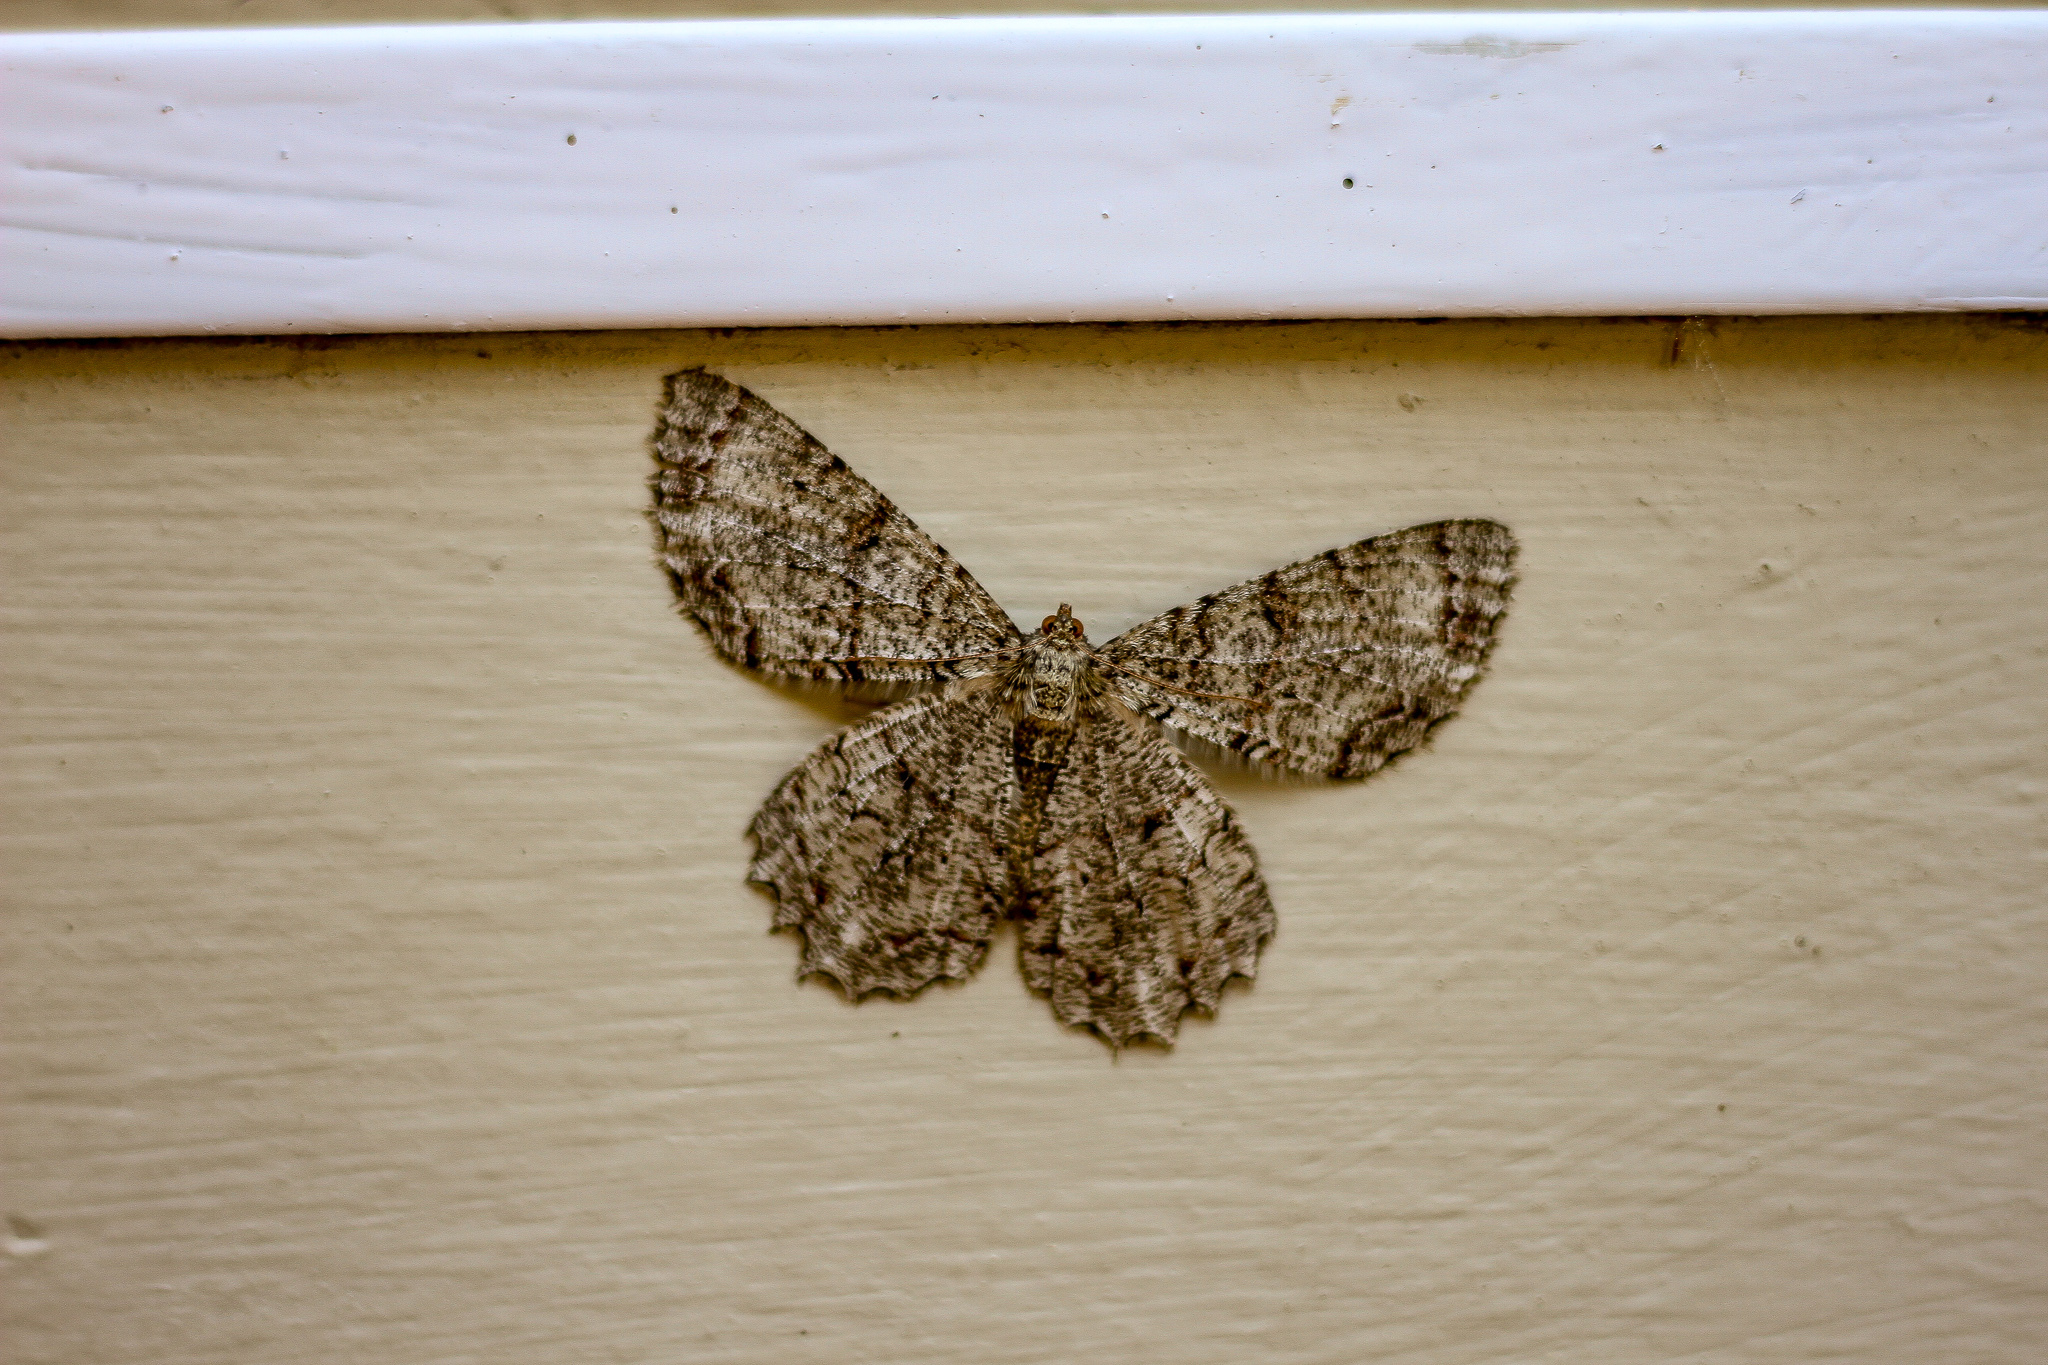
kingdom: Animalia
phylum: Arthropoda
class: Insecta
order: Lepidoptera
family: Geometridae
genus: Epimecis
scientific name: Epimecis hortaria
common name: Tulip-tree beauty
